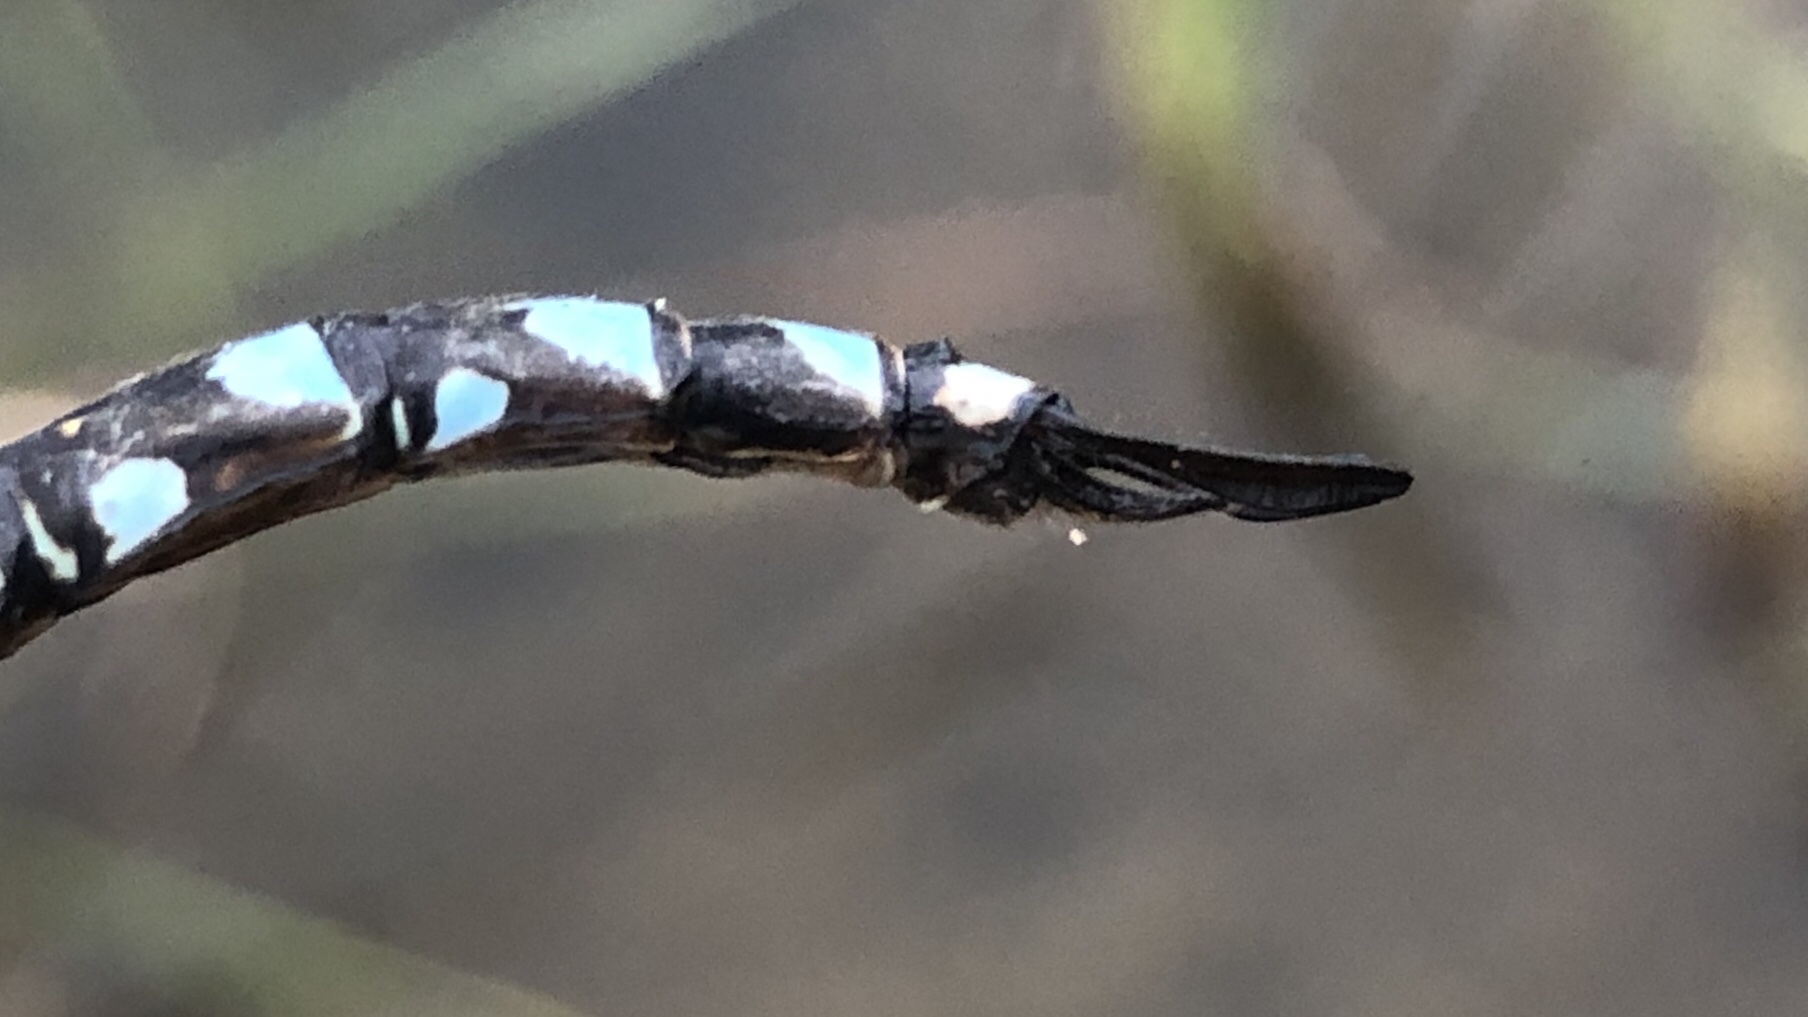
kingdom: Animalia
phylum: Arthropoda
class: Insecta
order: Odonata
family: Aeshnidae
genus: Aeshna
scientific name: Aeshna eremita
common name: Lake darner
